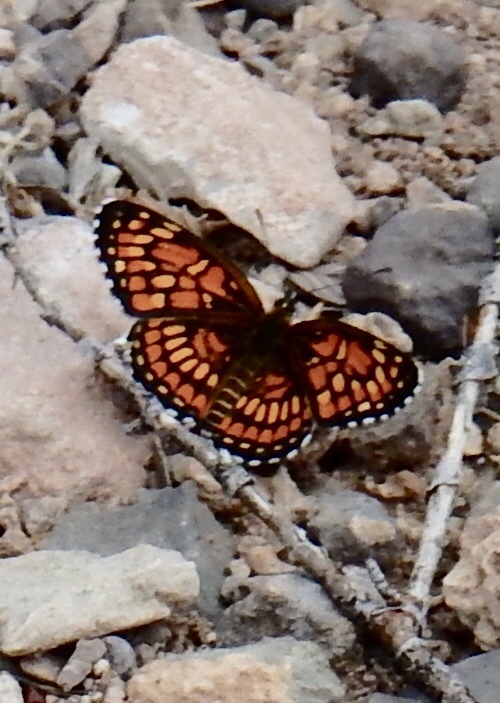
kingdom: Animalia
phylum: Arthropoda
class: Insecta
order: Lepidoptera
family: Nymphalidae
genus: Thessalia
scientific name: Thessalia theona
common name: Nymphalid moth
